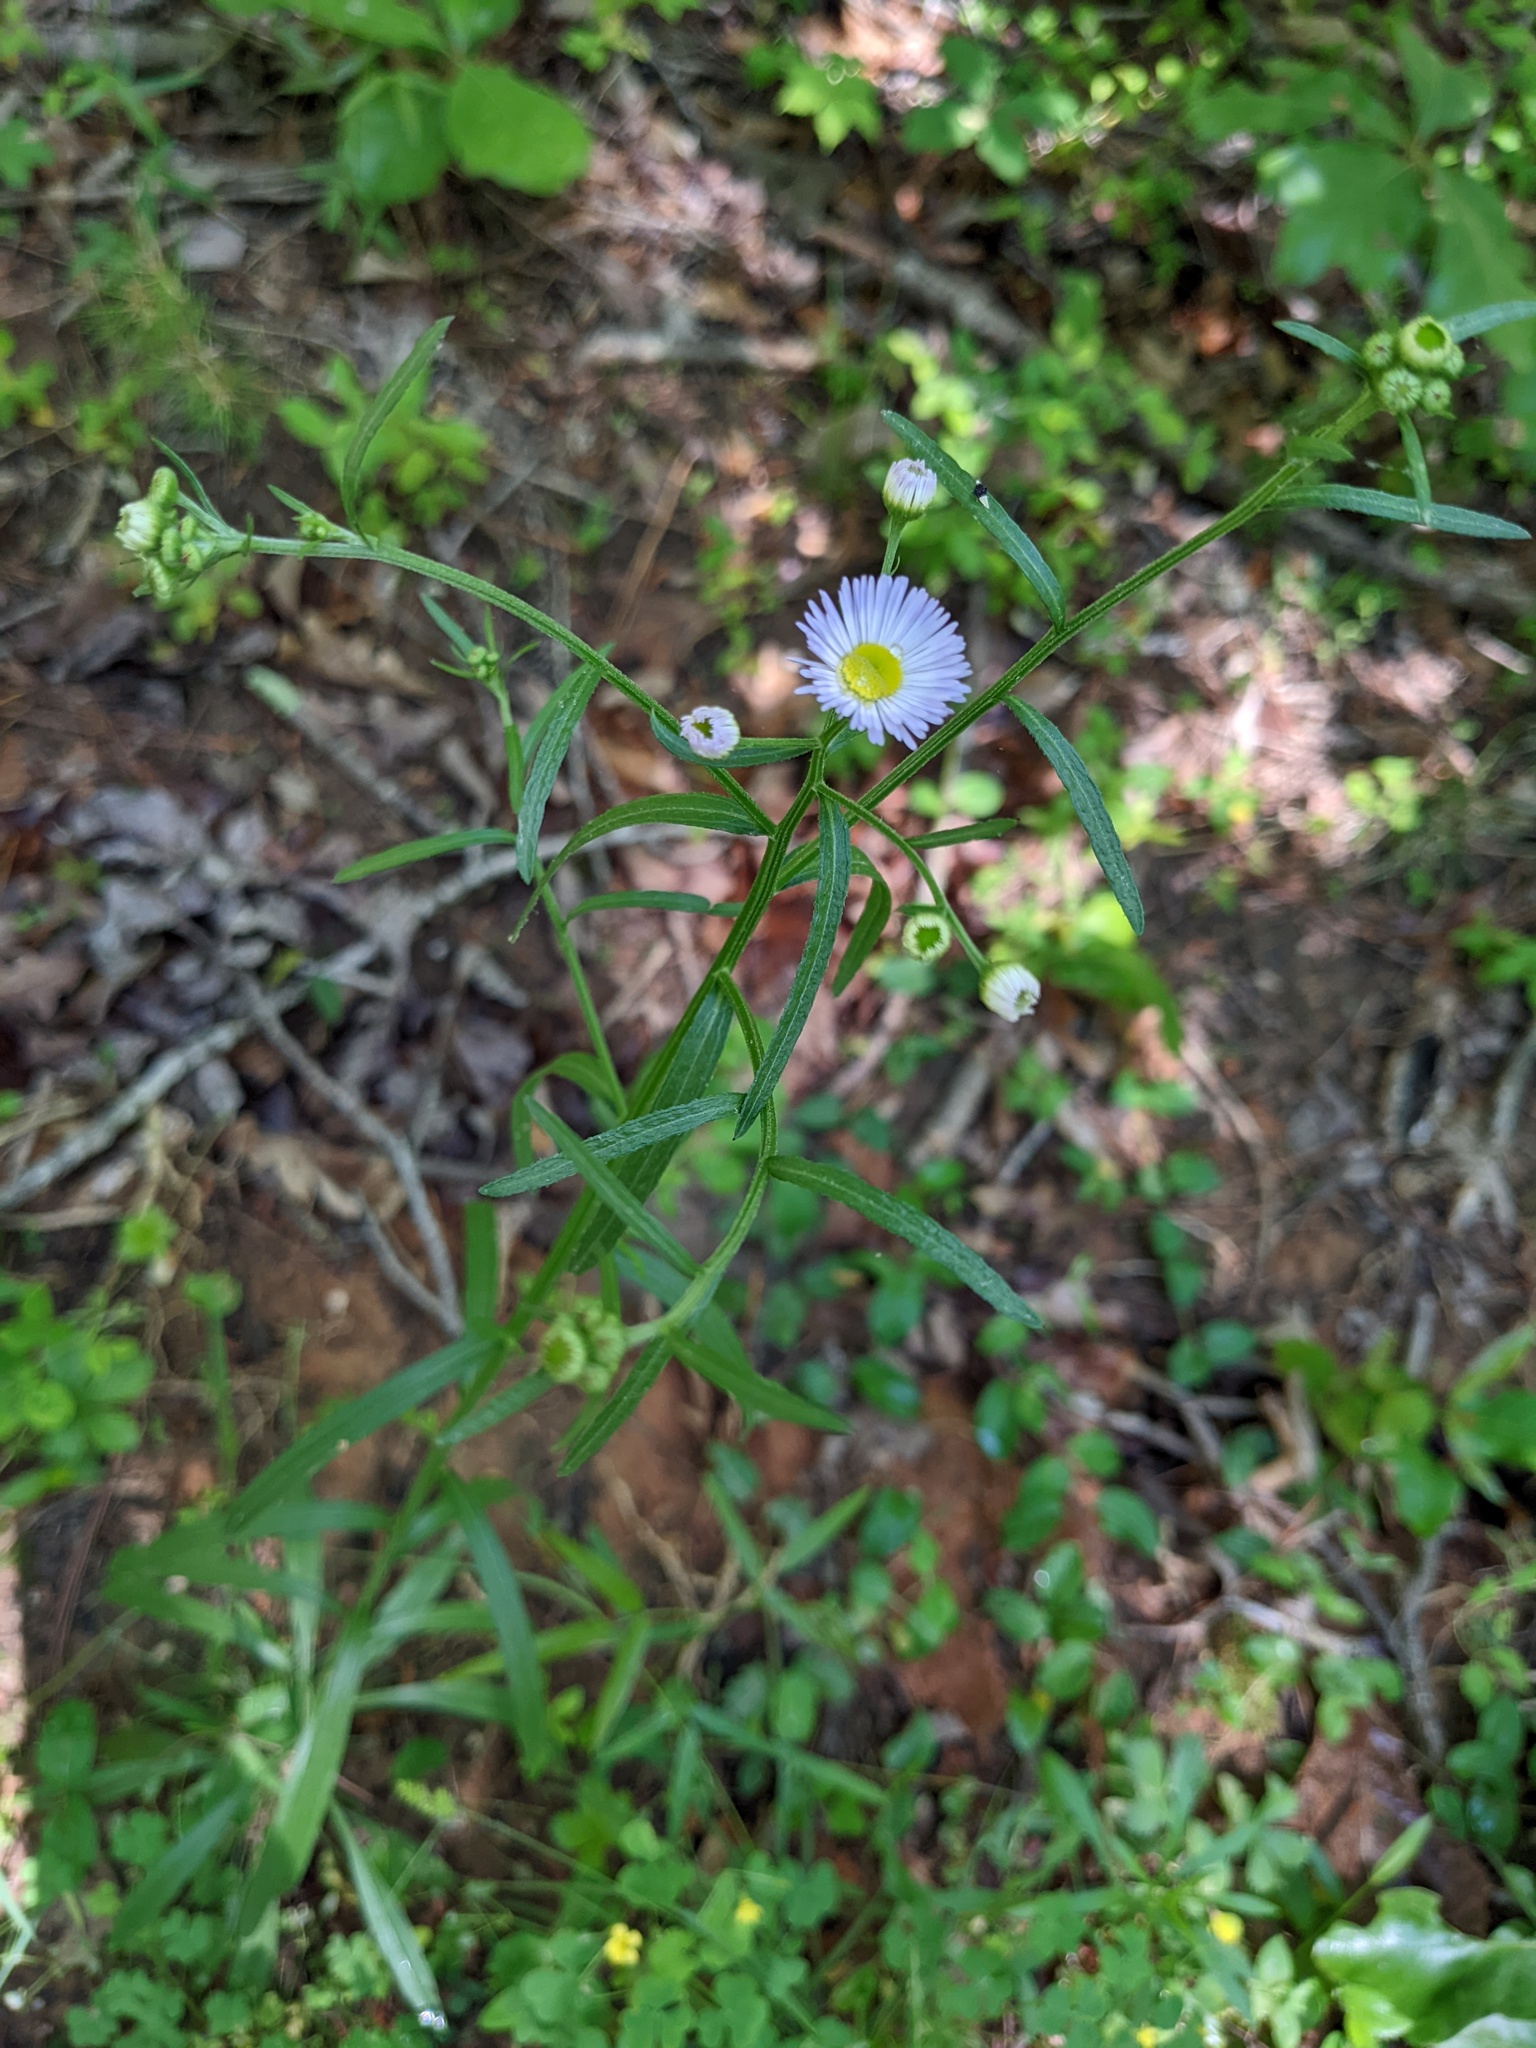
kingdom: Plantae
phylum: Tracheophyta
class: Magnoliopsida
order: Asterales
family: Asteraceae
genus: Erigeron
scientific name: Erigeron strigosus
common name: Common eastern fleabane
